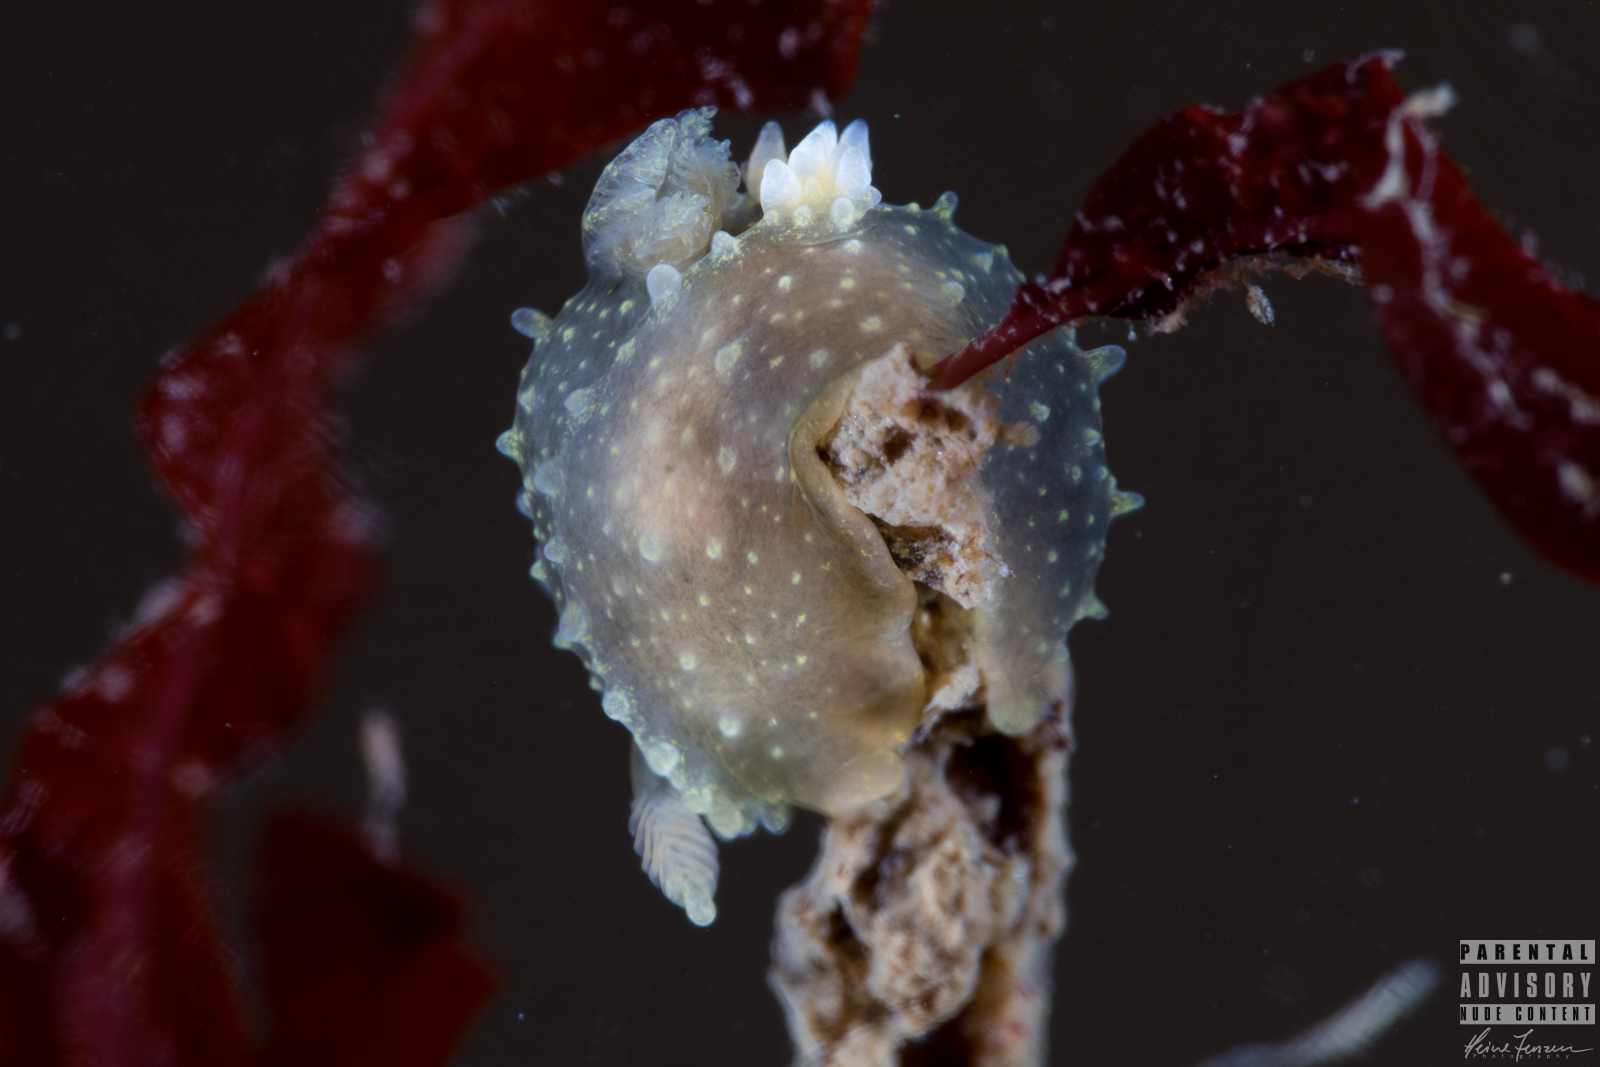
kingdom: Animalia
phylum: Mollusca
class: Gastropoda
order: Nudibranchia
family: Polyceridae
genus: Palio
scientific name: Palio dubia
